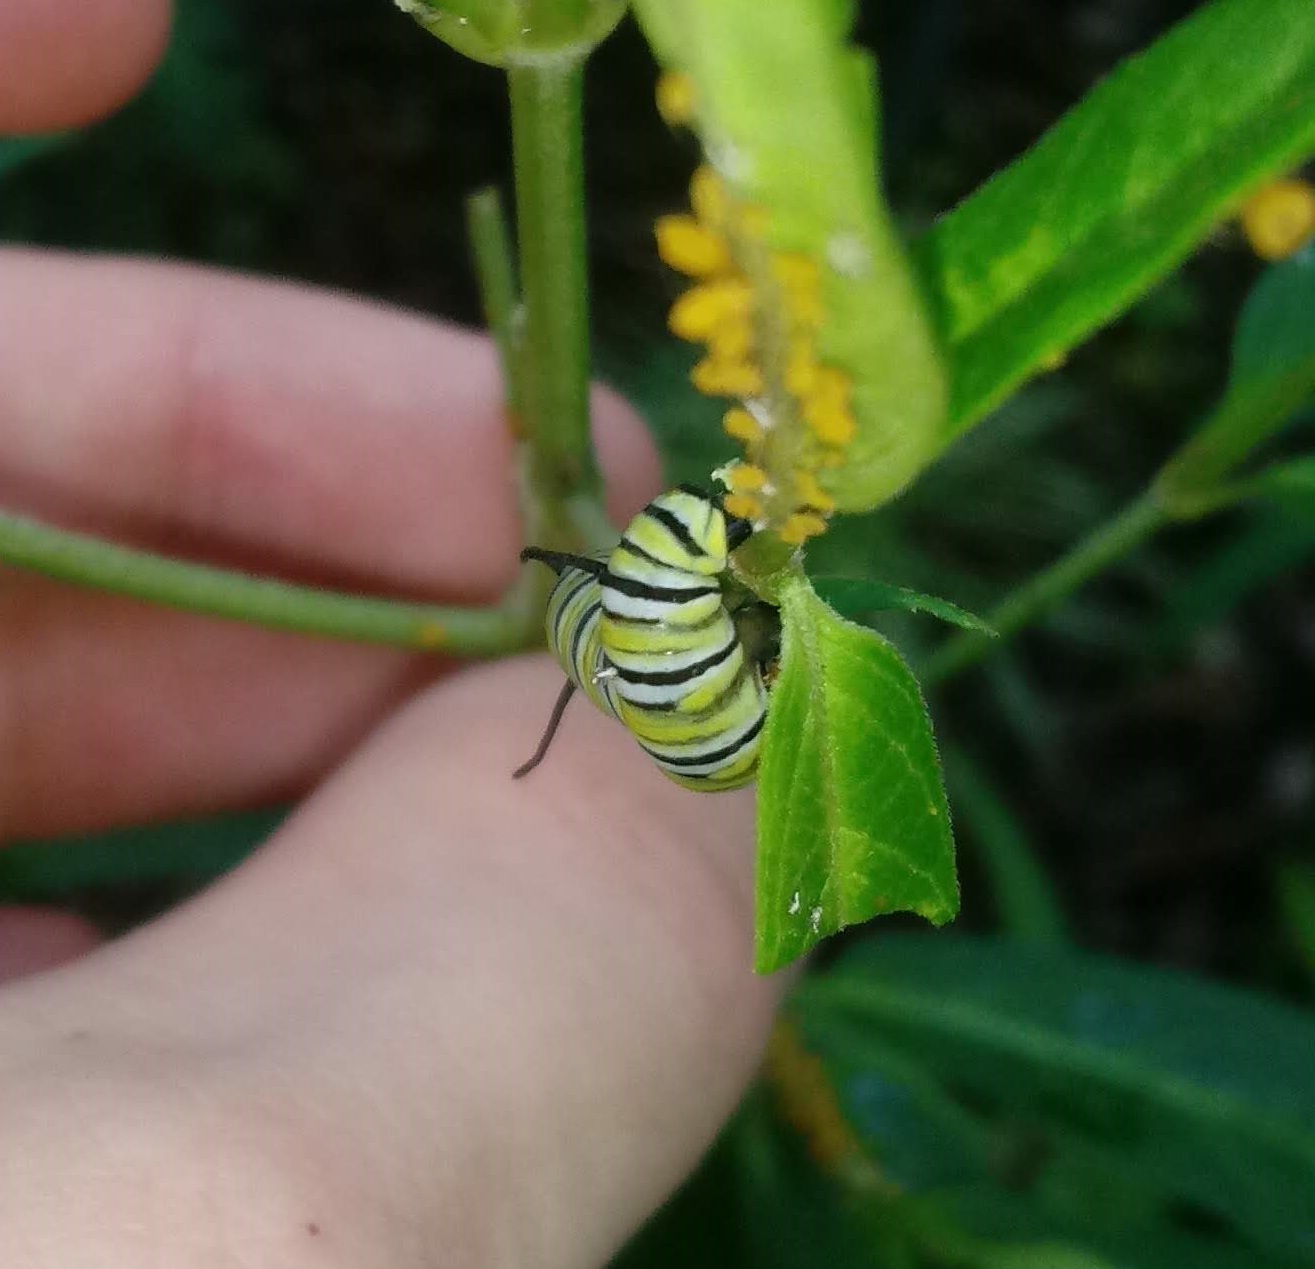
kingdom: Animalia
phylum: Arthropoda
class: Insecta
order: Lepidoptera
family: Nymphalidae
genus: Danaus
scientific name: Danaus plexippus
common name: Monarch
